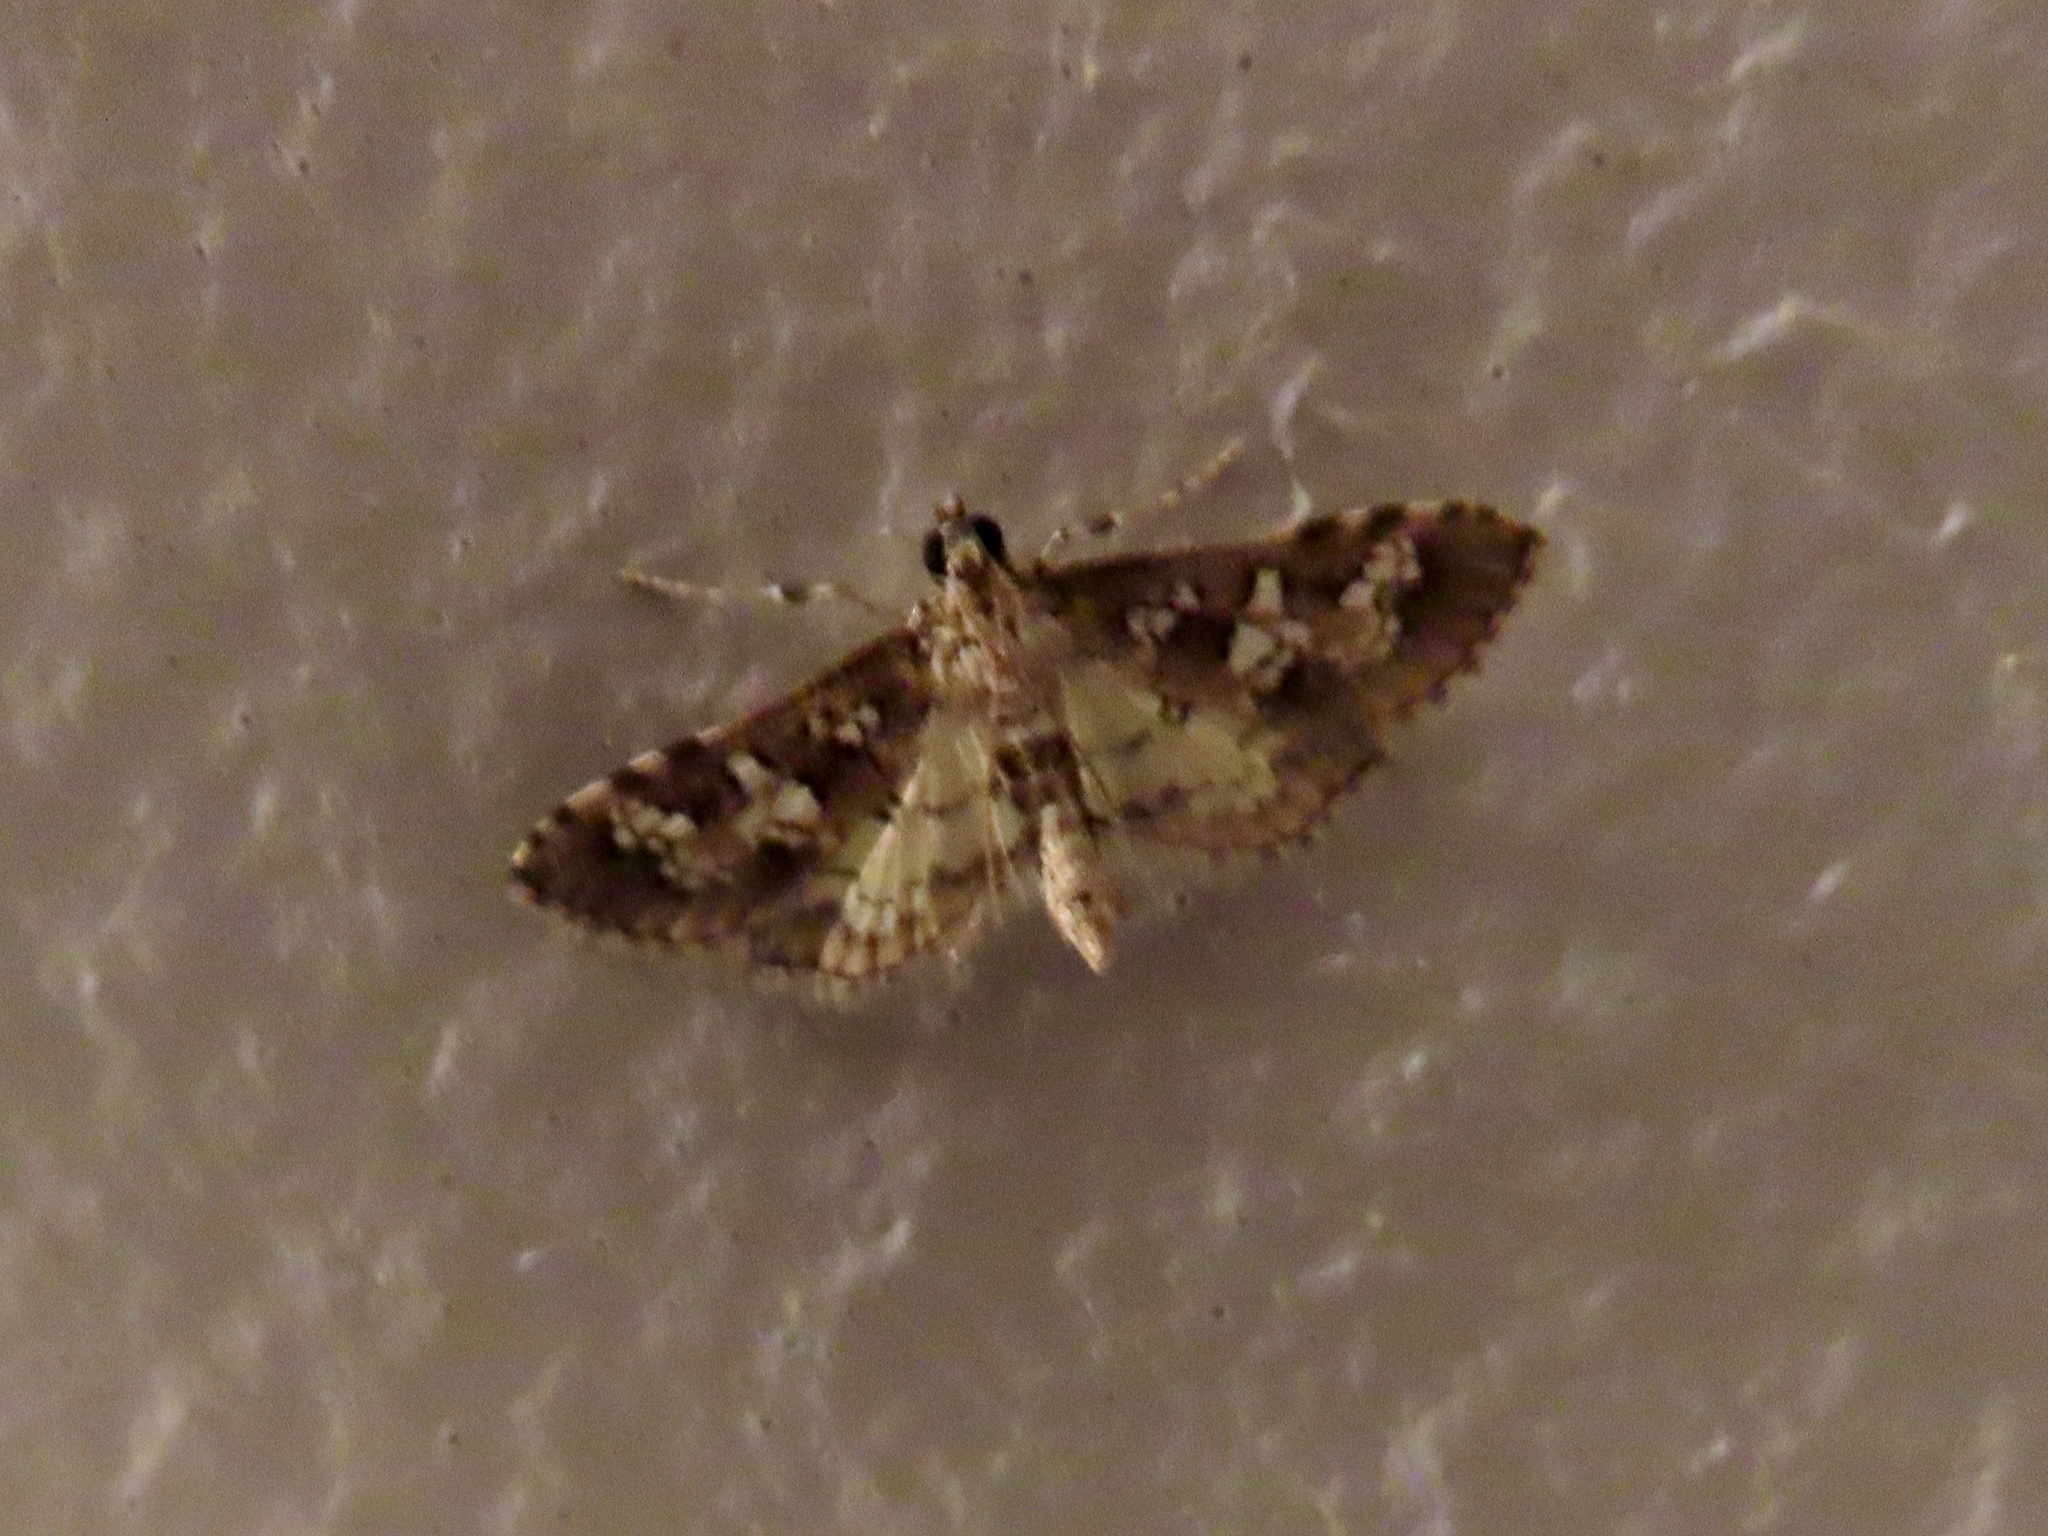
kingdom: Animalia
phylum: Arthropoda
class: Insecta
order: Lepidoptera
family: Crambidae
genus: Samea
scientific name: Samea multiplicalis
